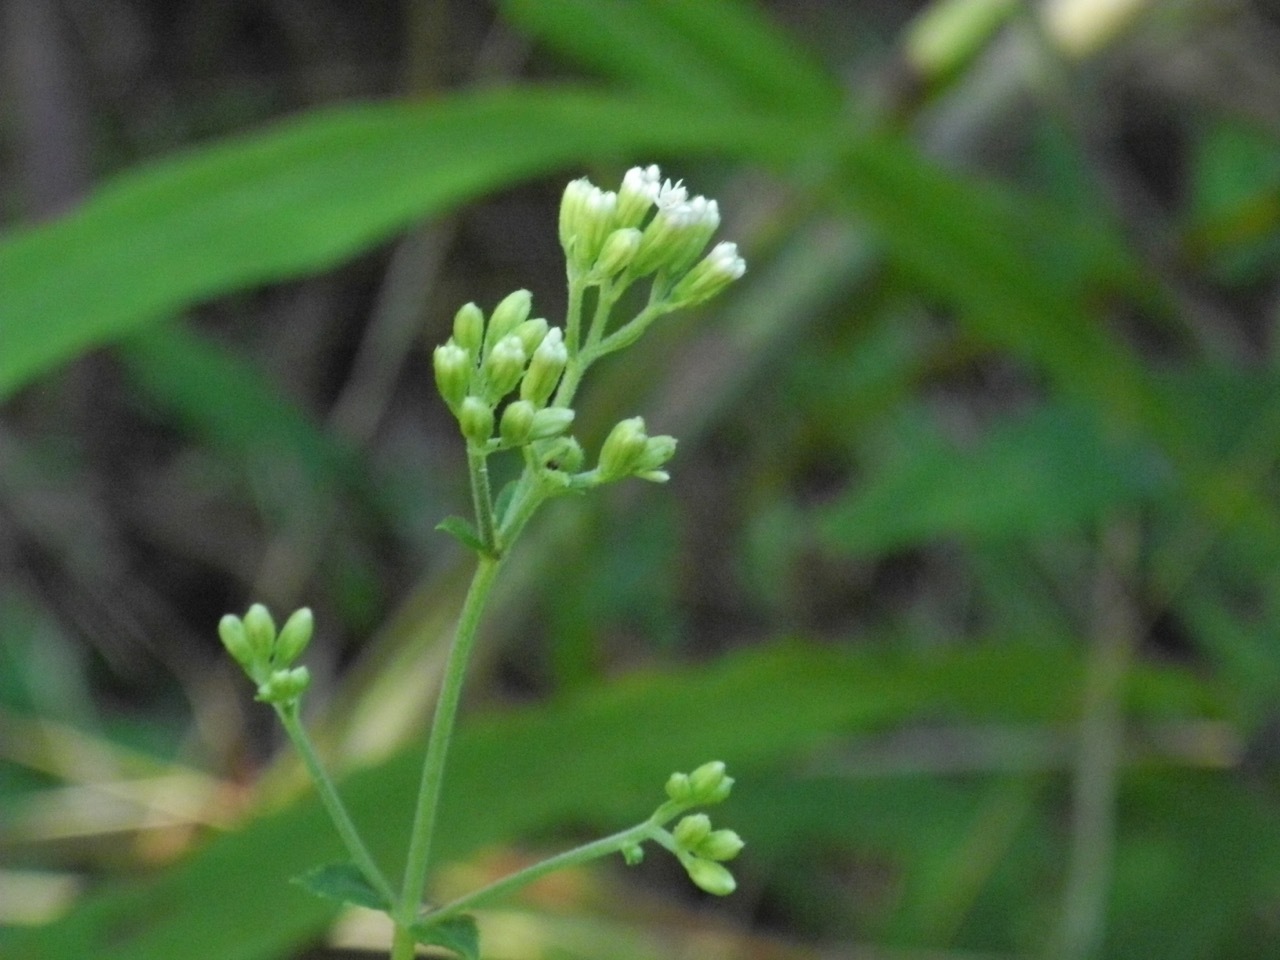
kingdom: Plantae
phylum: Tracheophyta
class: Magnoliopsida
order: Asterales
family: Asteraceae
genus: Ageratina
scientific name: Ageratina aromatica
